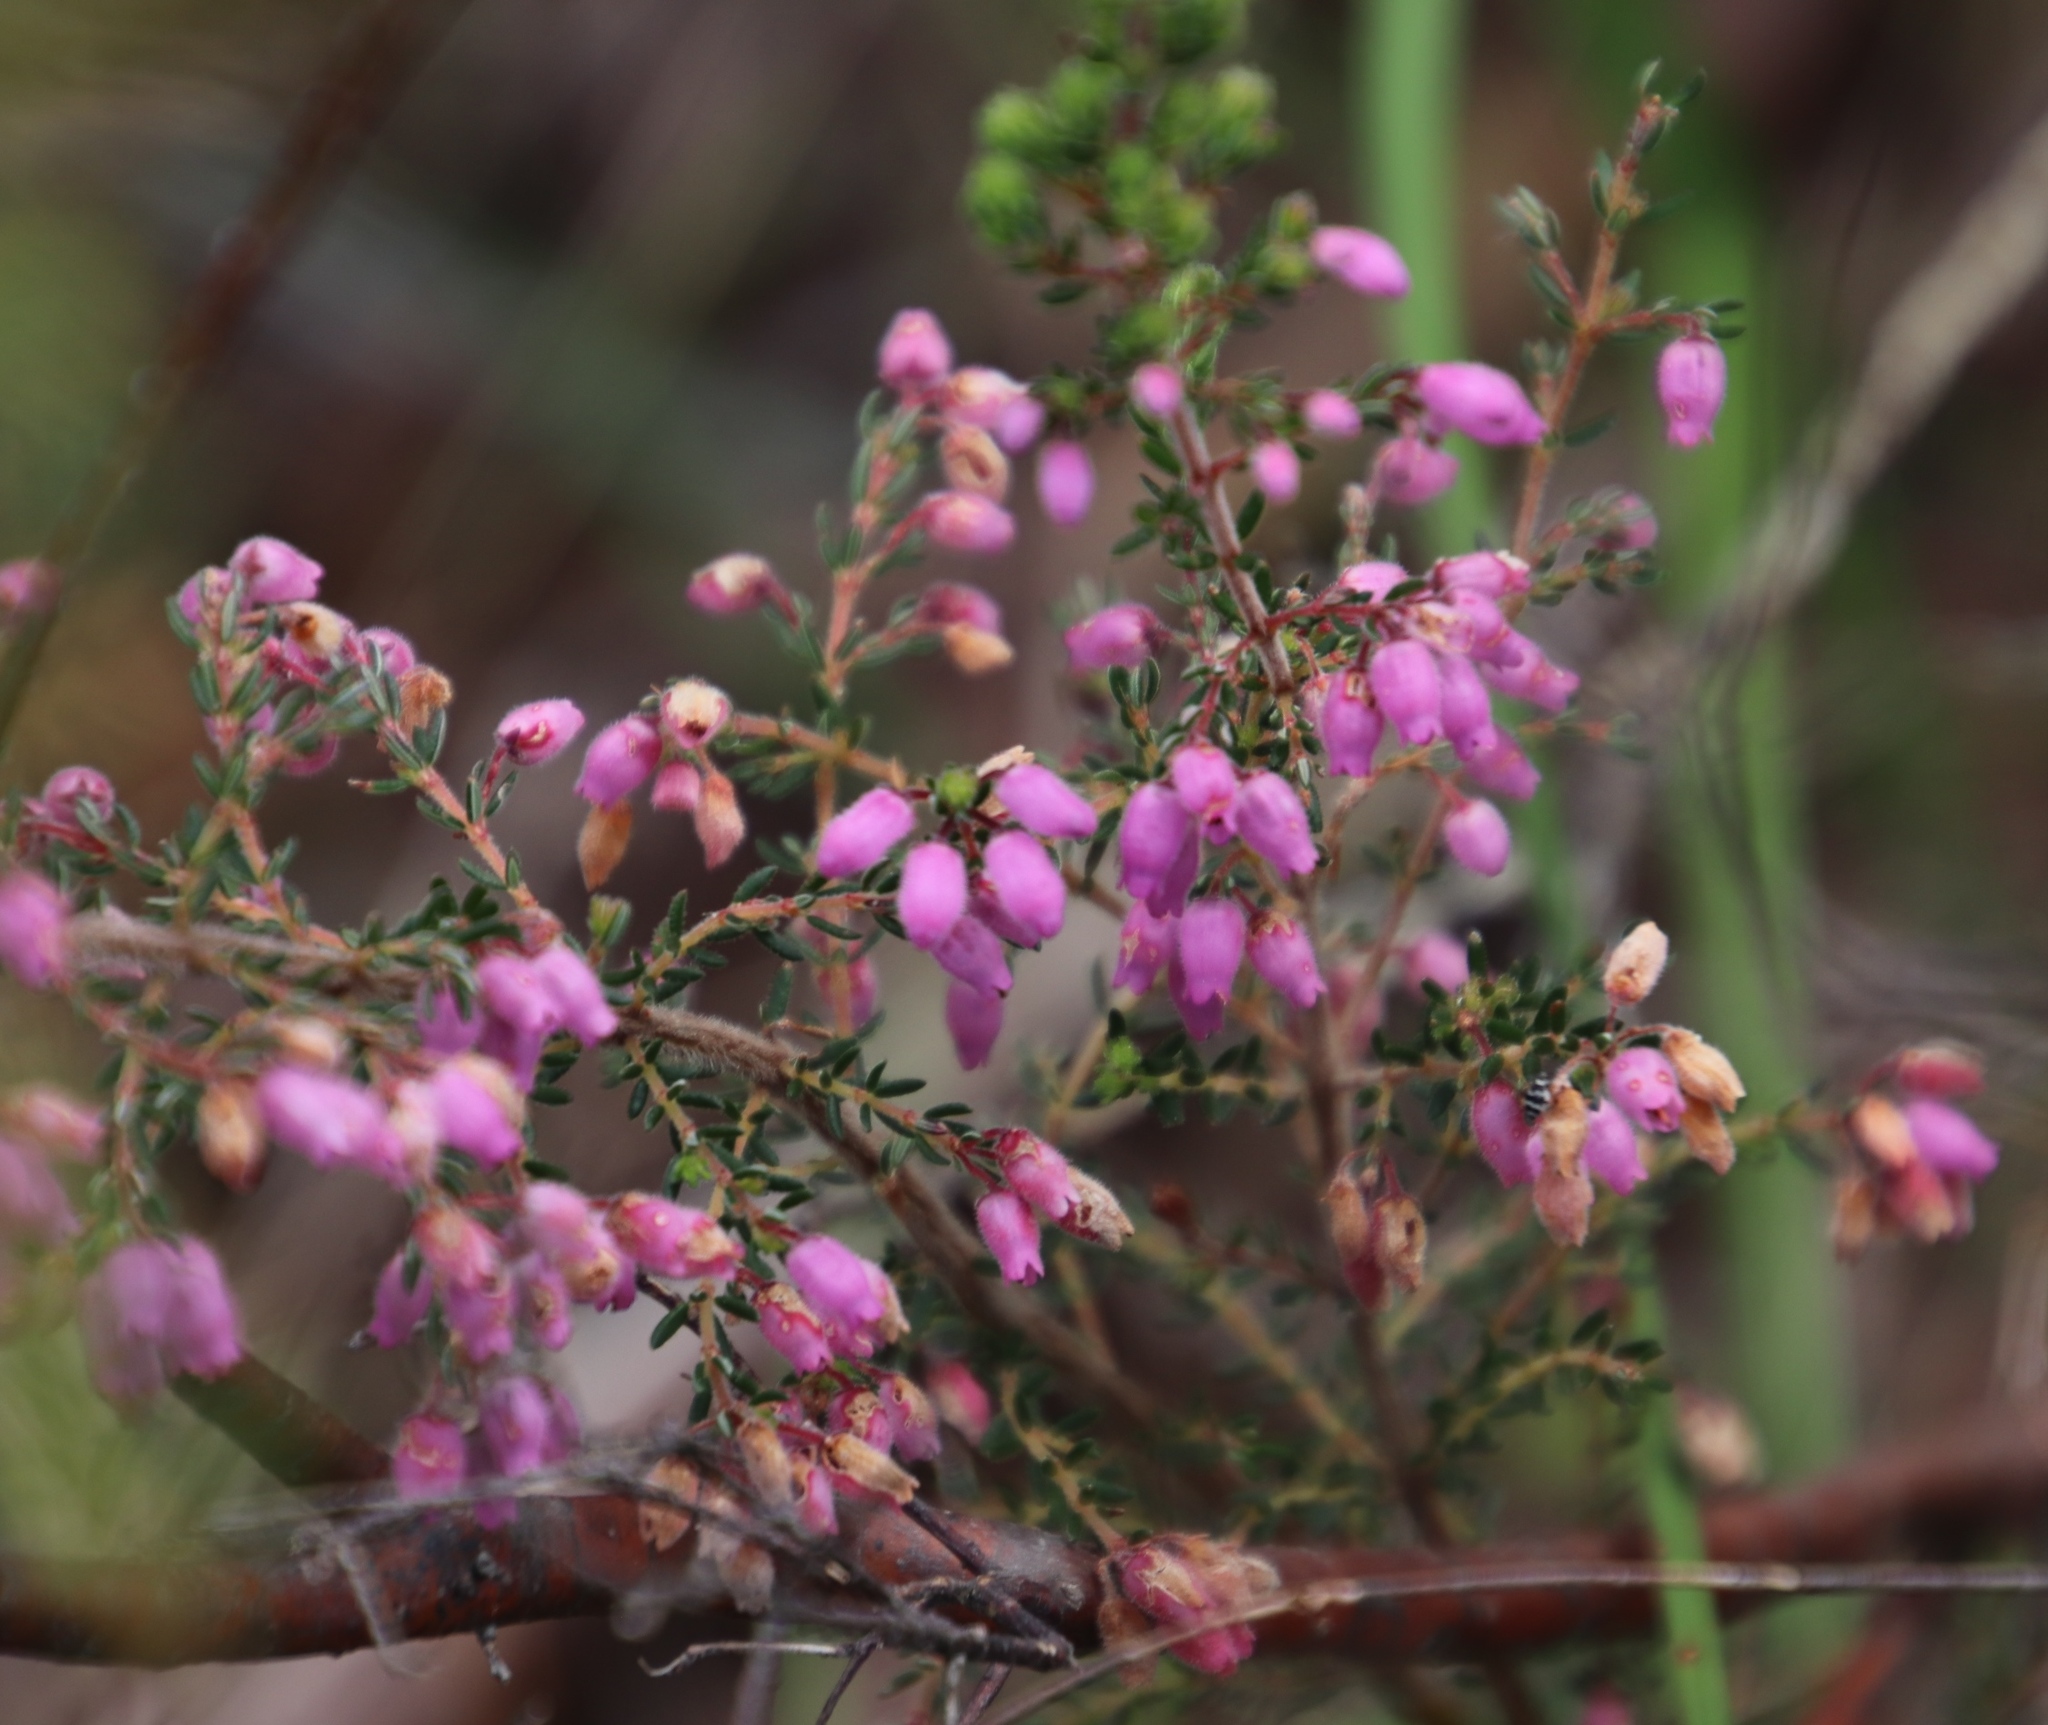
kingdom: Plantae
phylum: Tracheophyta
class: Magnoliopsida
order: Ericales
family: Ericaceae
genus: Erica
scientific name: Erica hirtiflora
